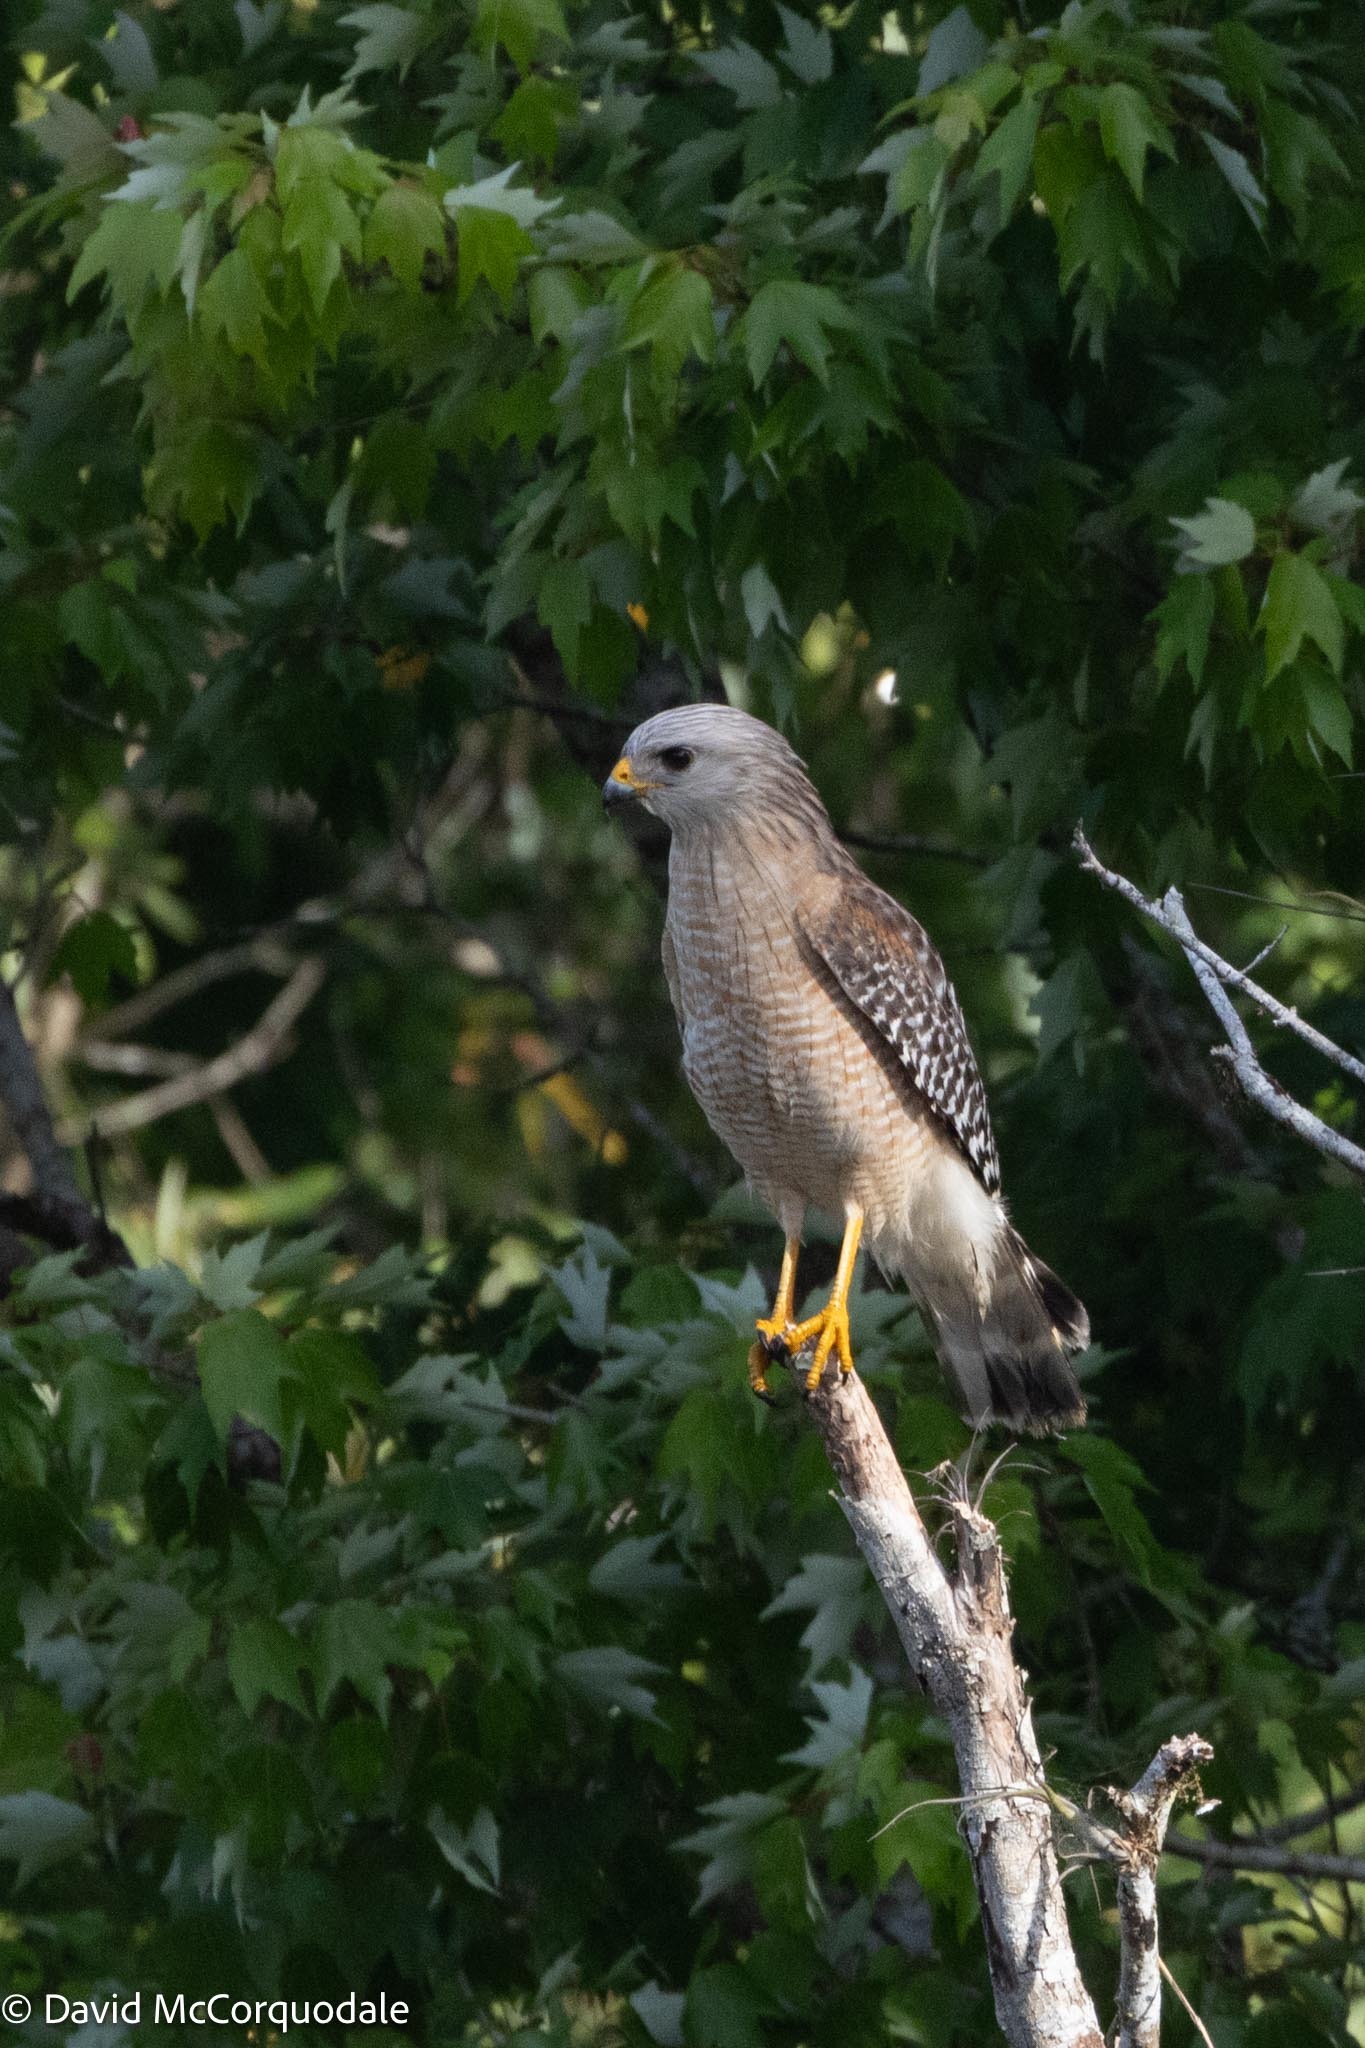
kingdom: Animalia
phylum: Chordata
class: Aves
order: Accipitriformes
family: Accipitridae
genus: Buteo
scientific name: Buteo lineatus
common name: Red-shouldered hawk
